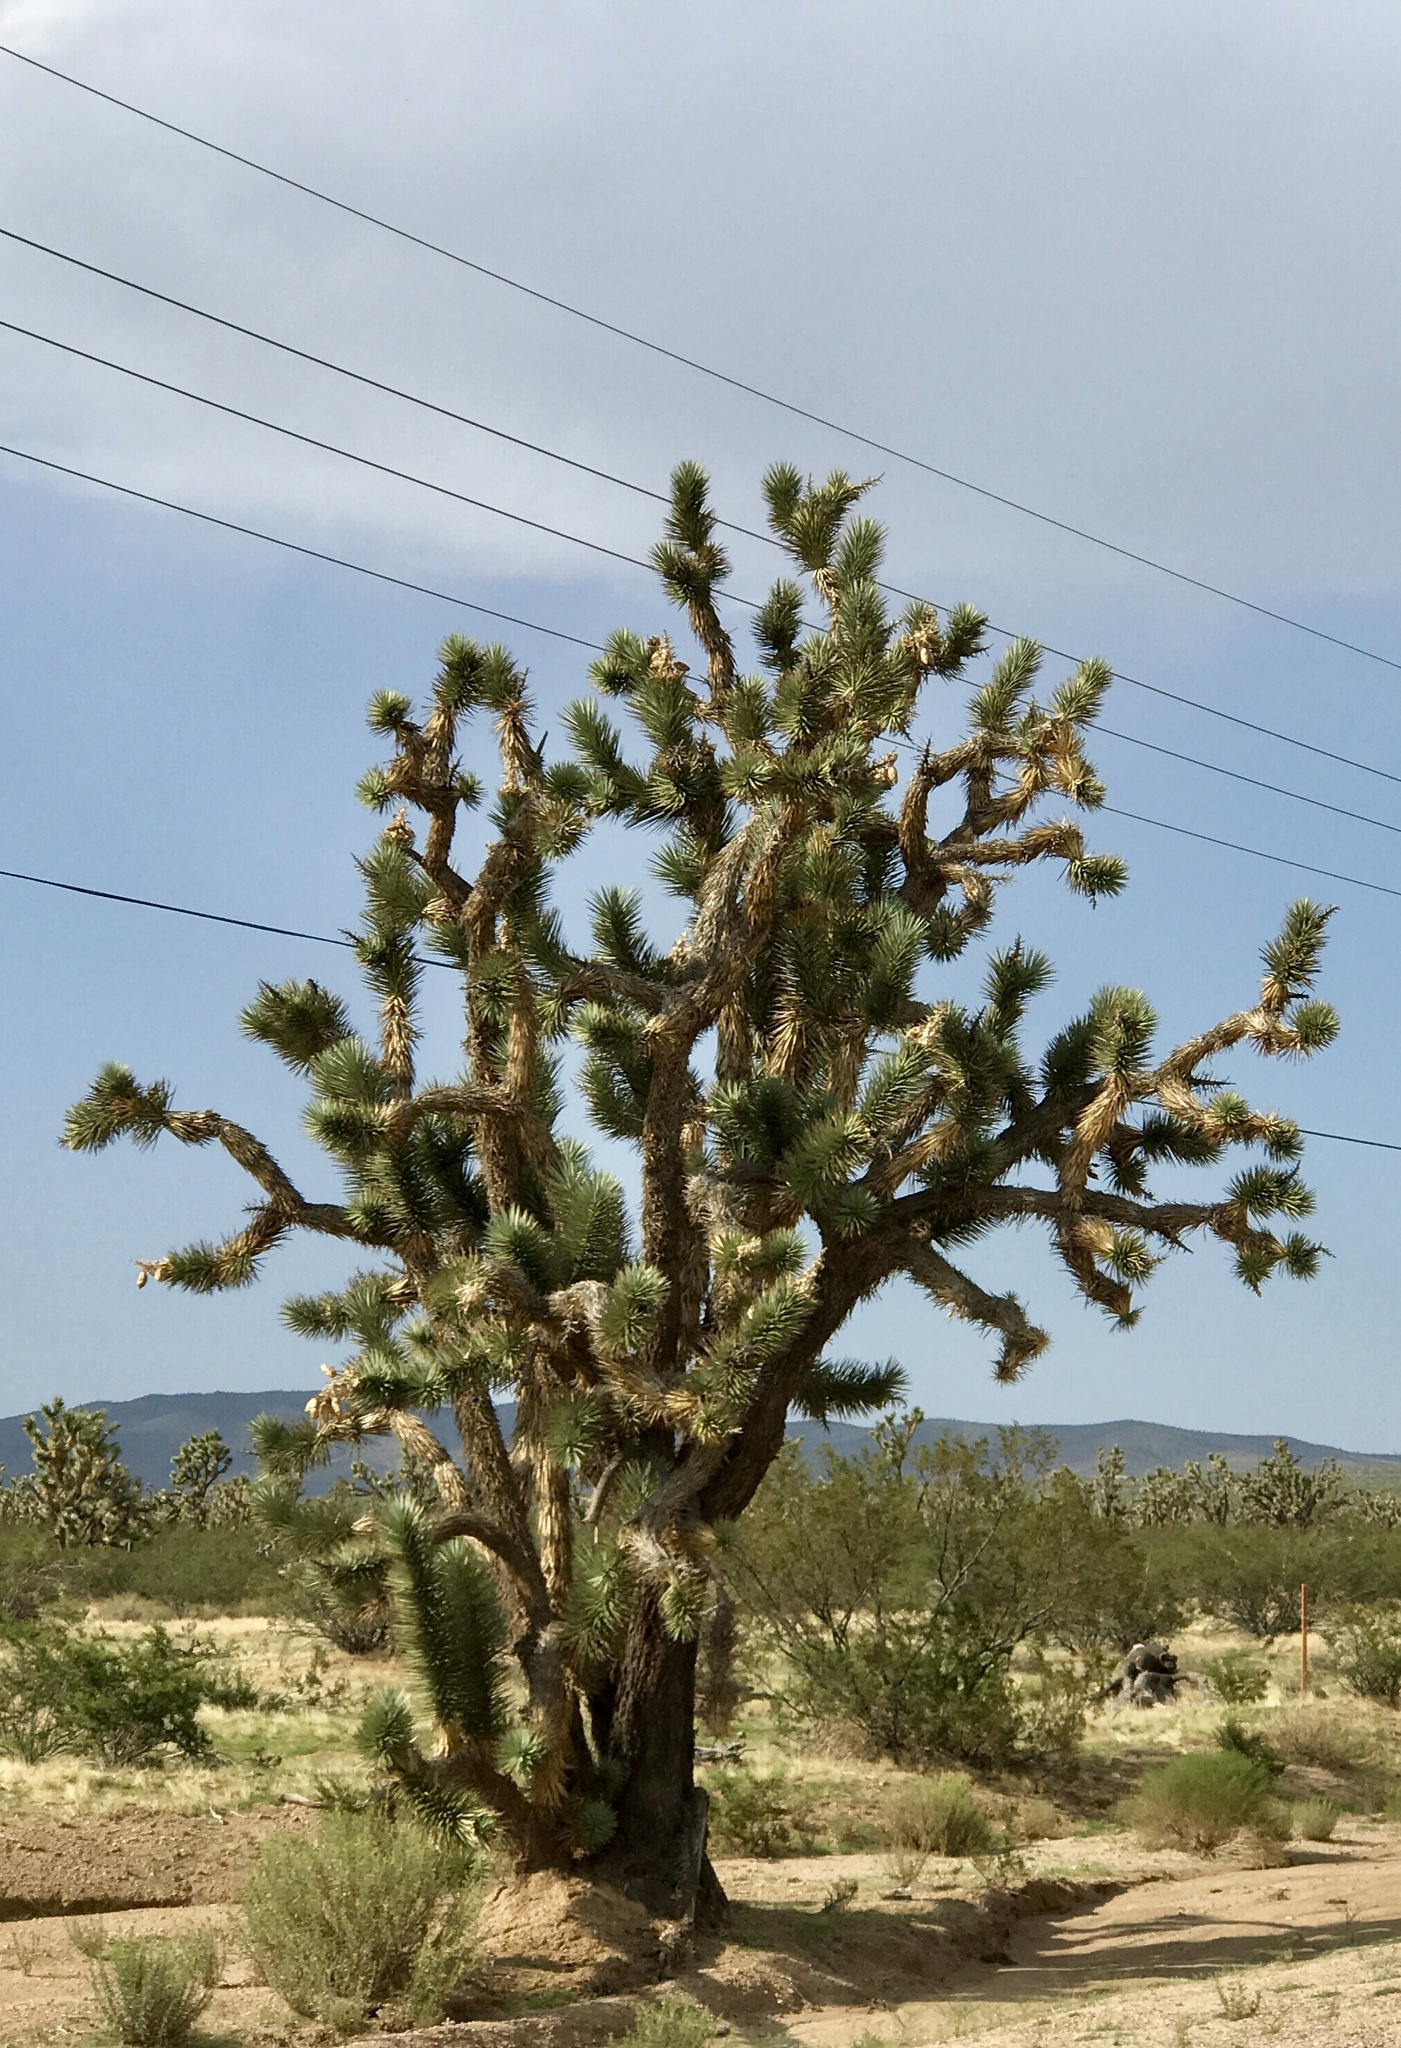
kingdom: Plantae
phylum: Tracheophyta
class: Liliopsida
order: Asparagales
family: Asparagaceae
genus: Yucca
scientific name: Yucca brevifolia
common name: Joshua tree
